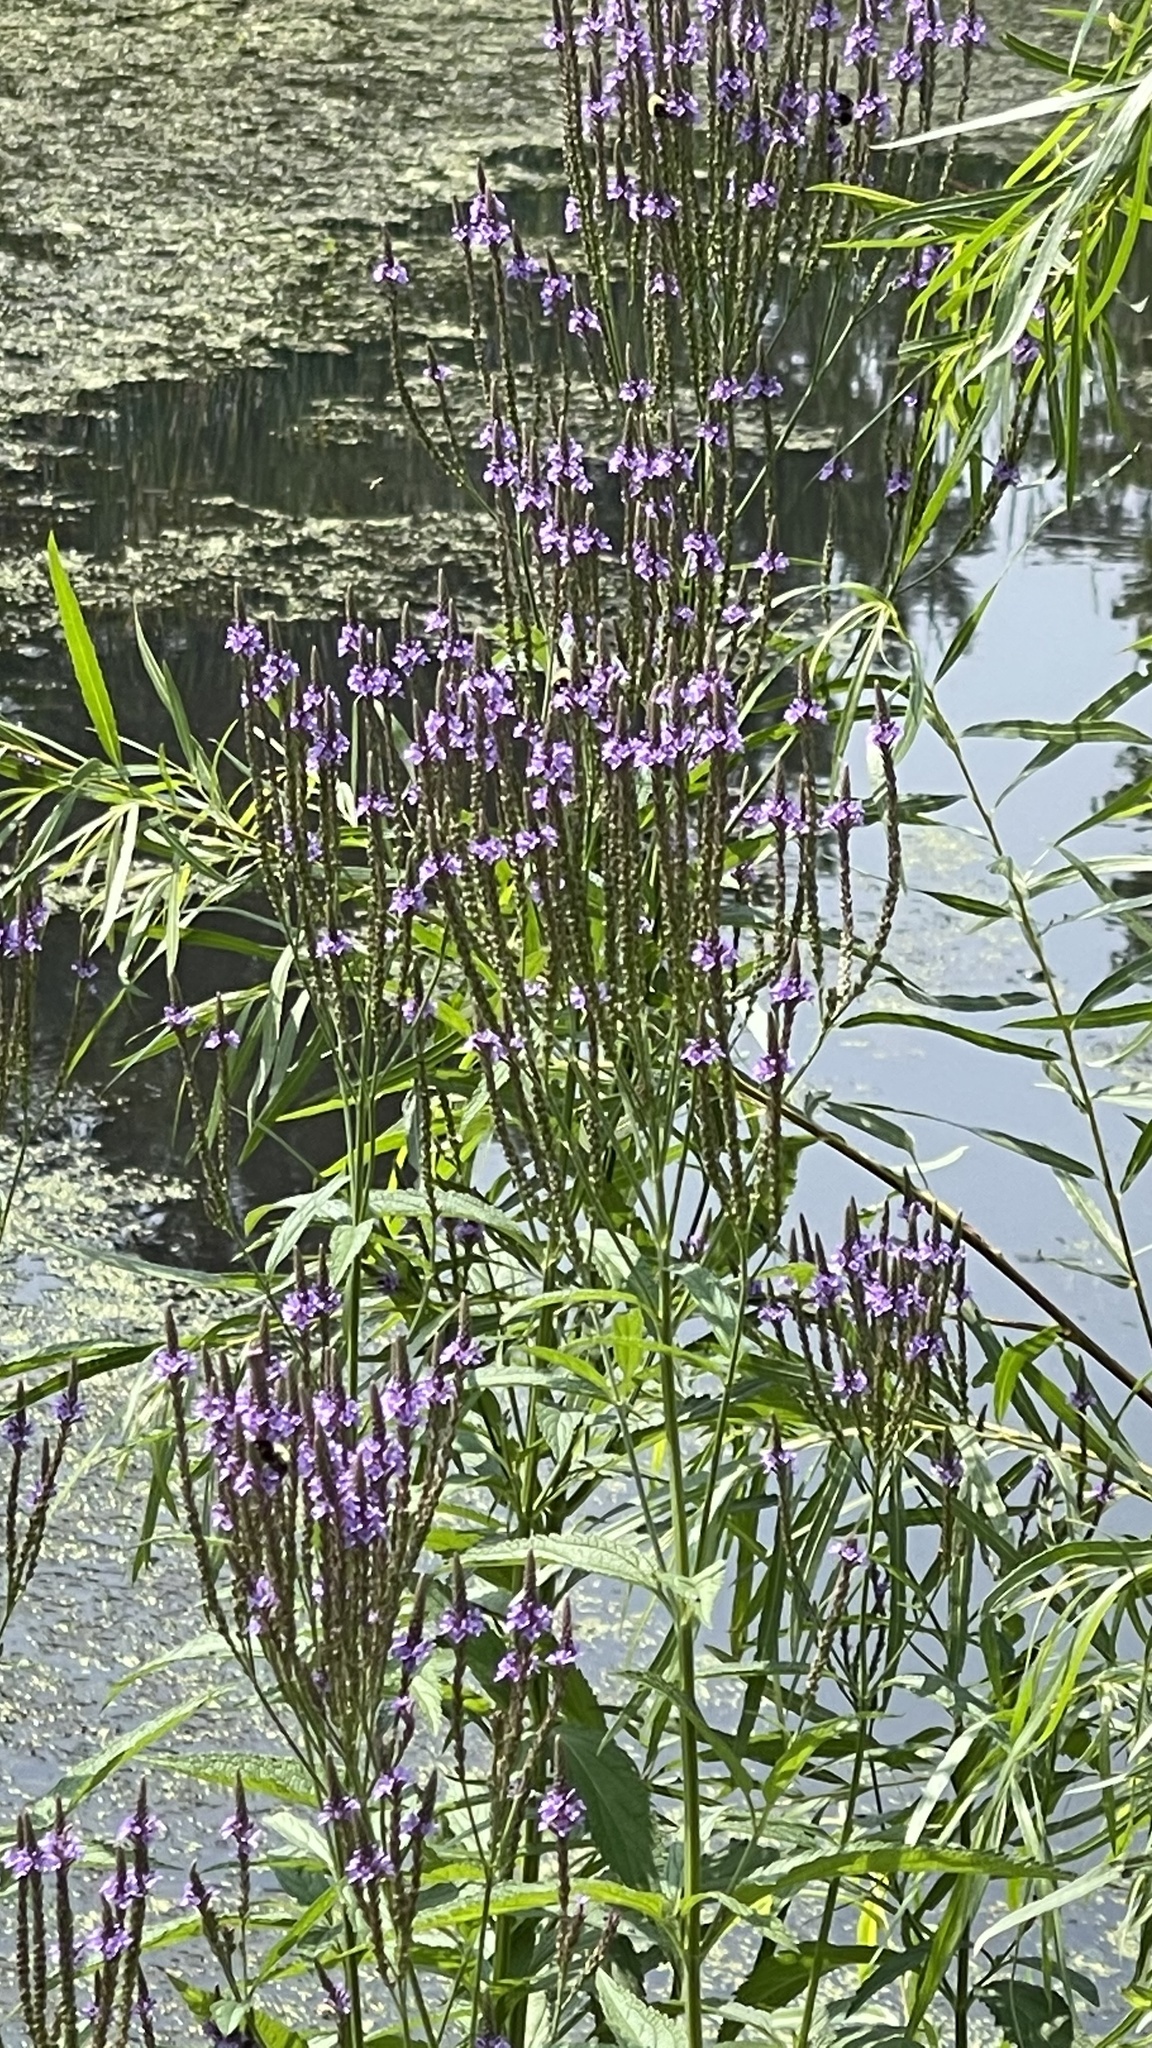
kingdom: Plantae
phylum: Tracheophyta
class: Magnoliopsida
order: Lamiales
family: Verbenaceae
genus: Verbena
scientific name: Verbena hastata
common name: American blue vervain
